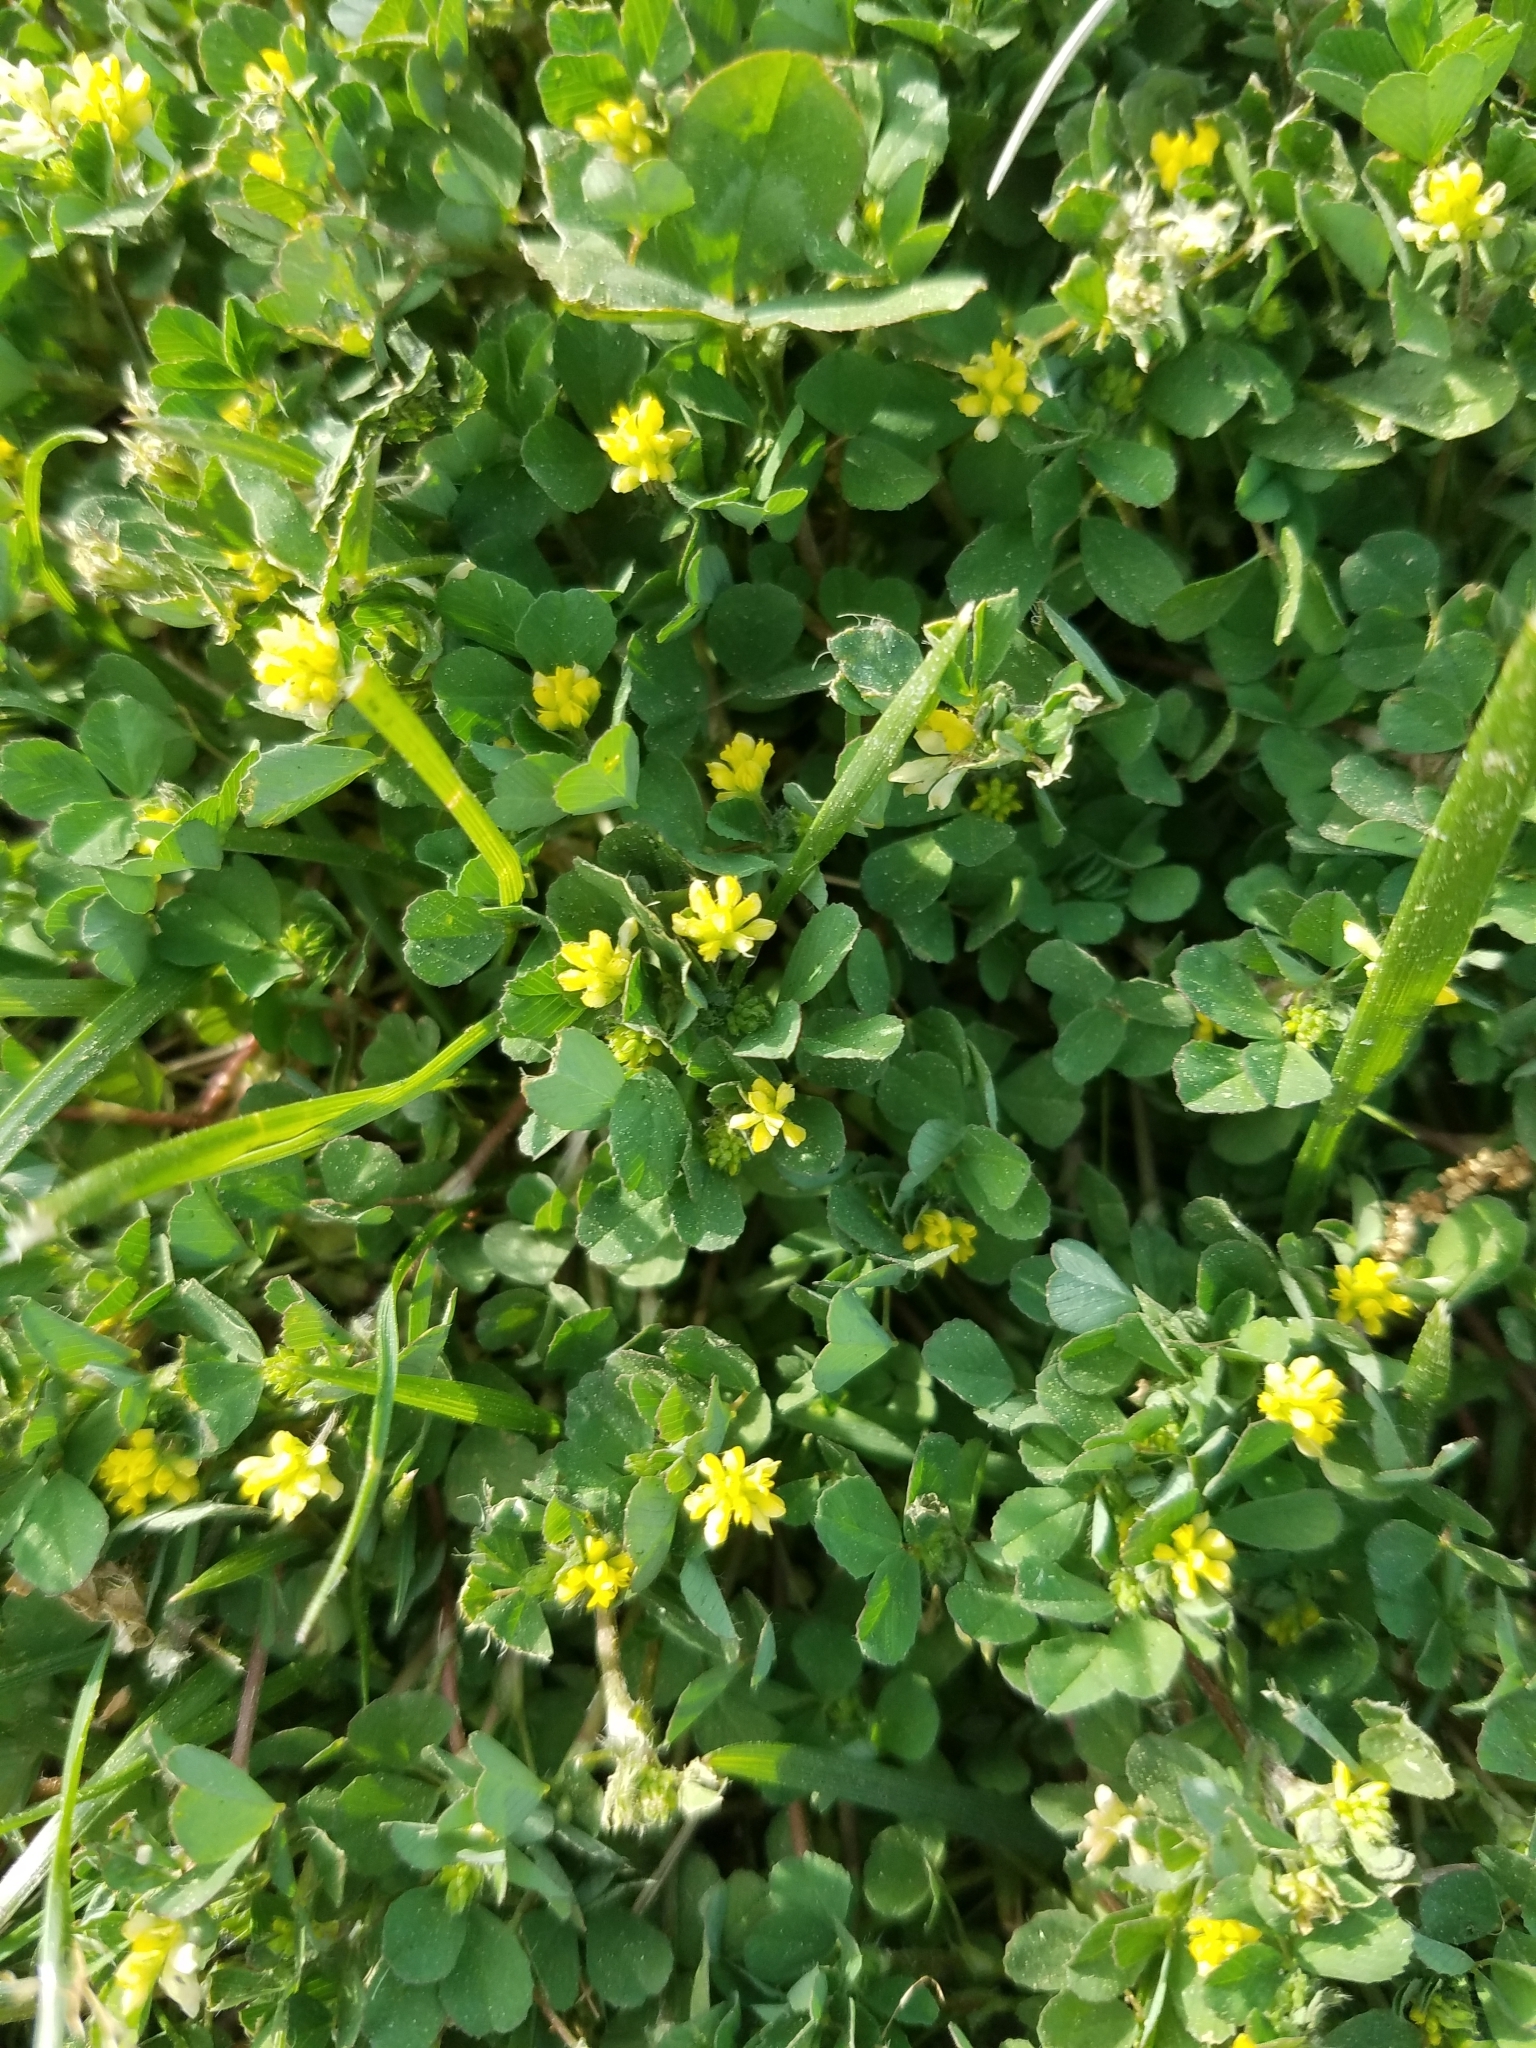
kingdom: Plantae
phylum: Tracheophyta
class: Magnoliopsida
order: Fabales
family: Fabaceae
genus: Trifolium
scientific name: Trifolium dubium
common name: Suckling clover
